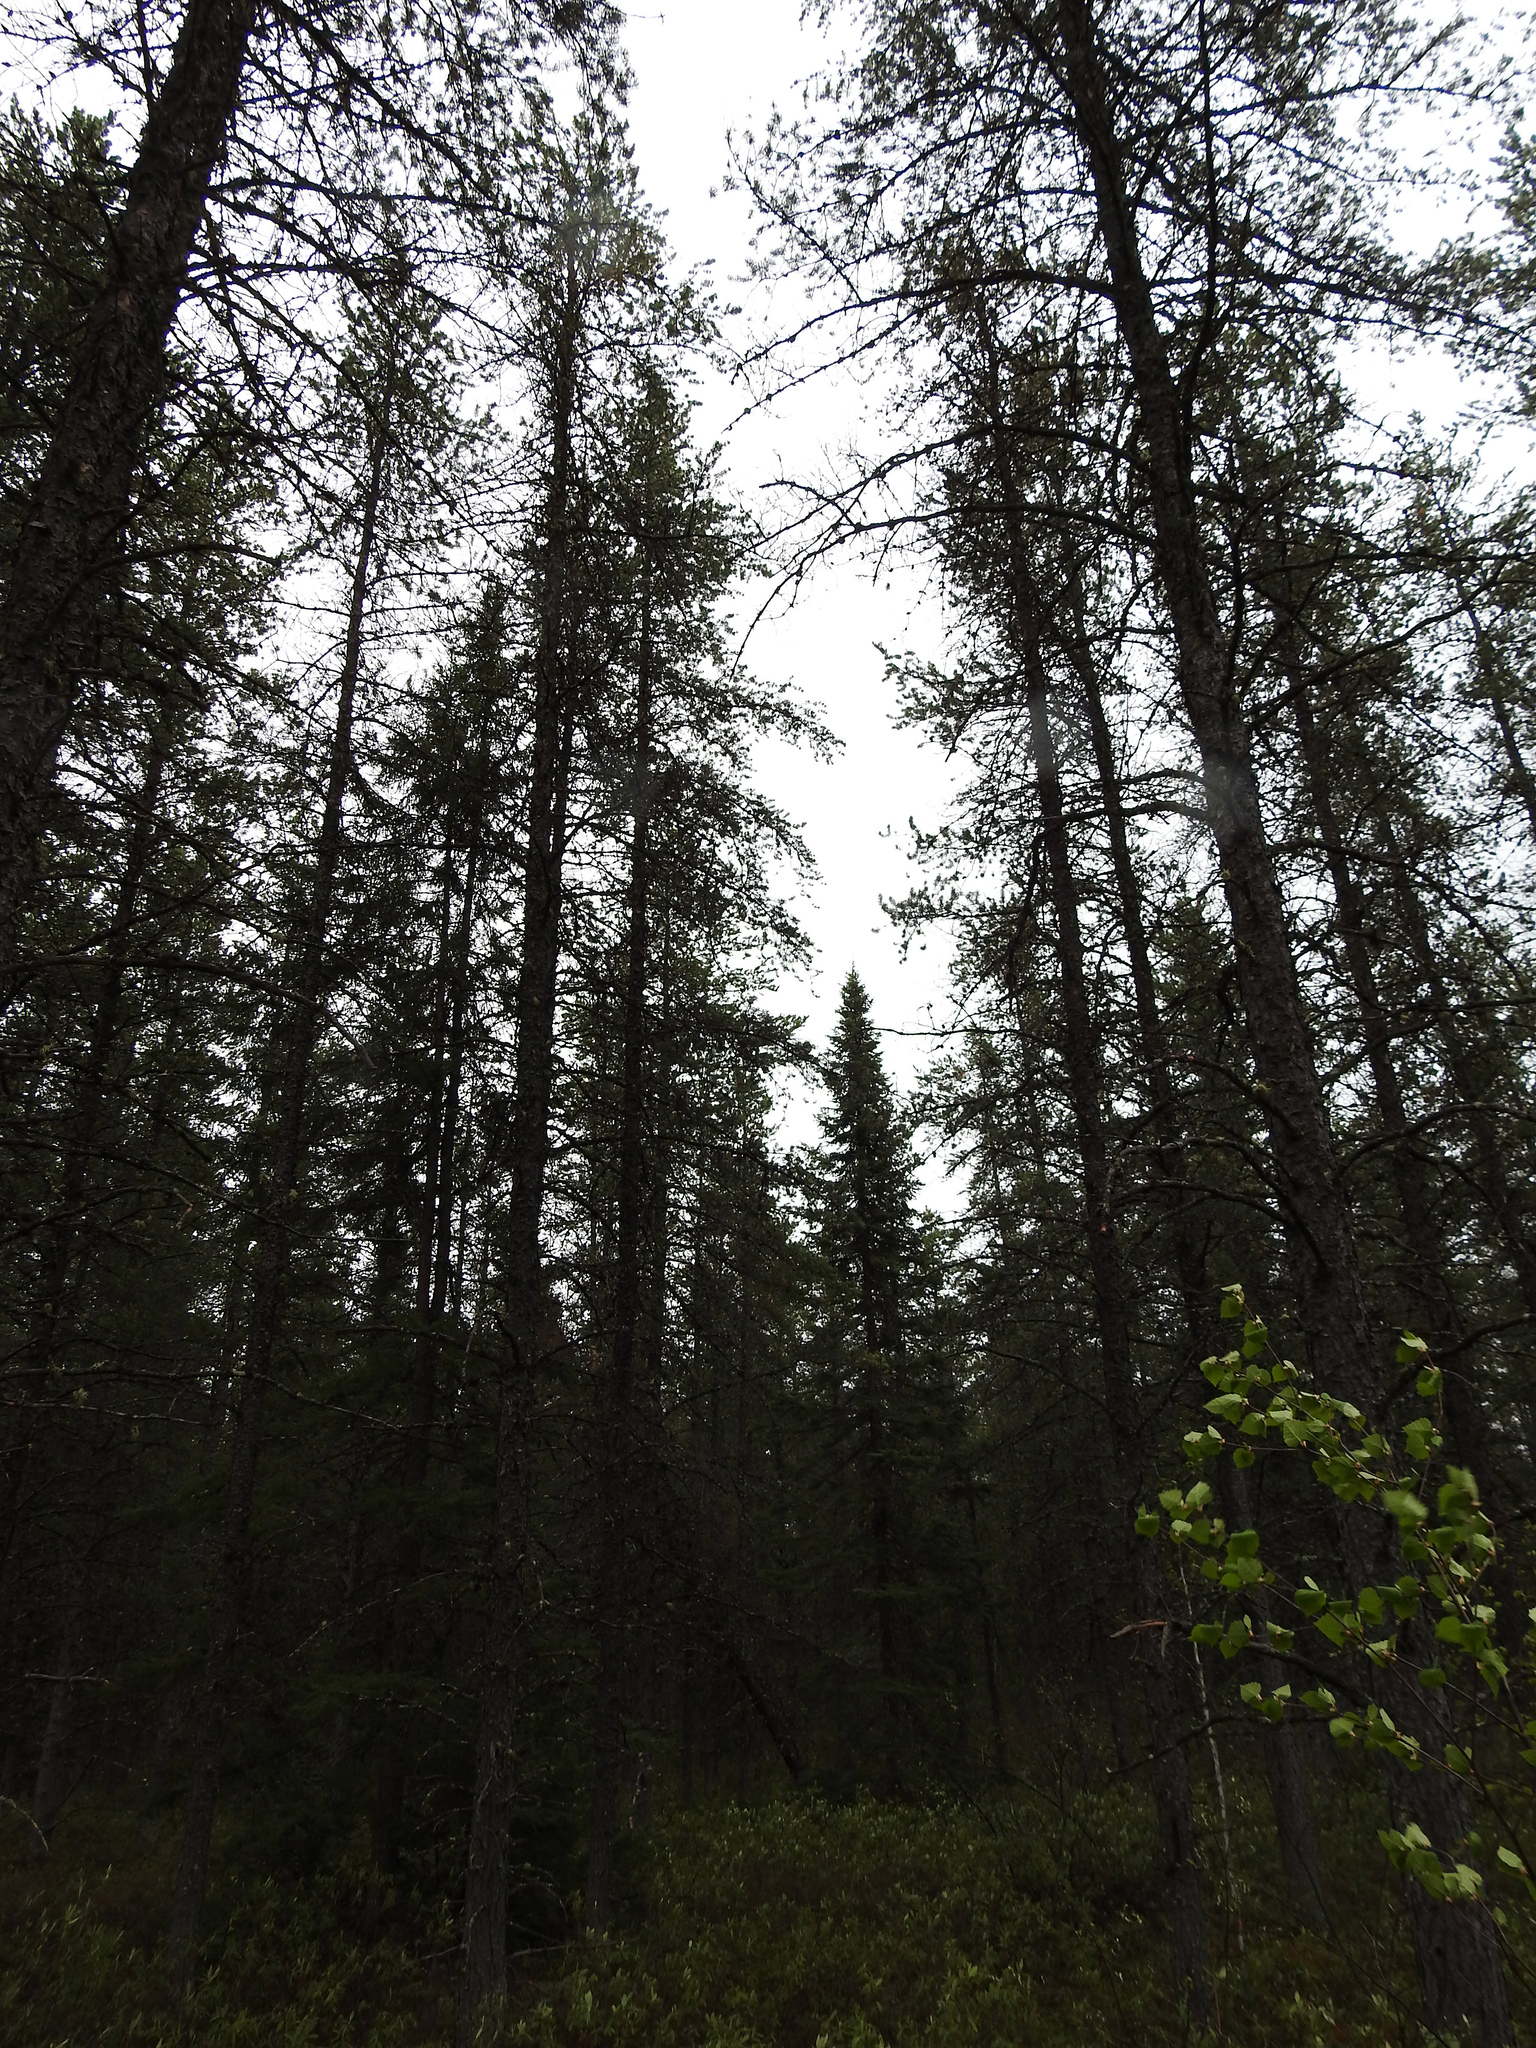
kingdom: Plantae
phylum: Tracheophyta
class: Pinopsida
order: Pinales
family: Pinaceae
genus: Pinus
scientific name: Pinus banksiana
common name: Jack pine
